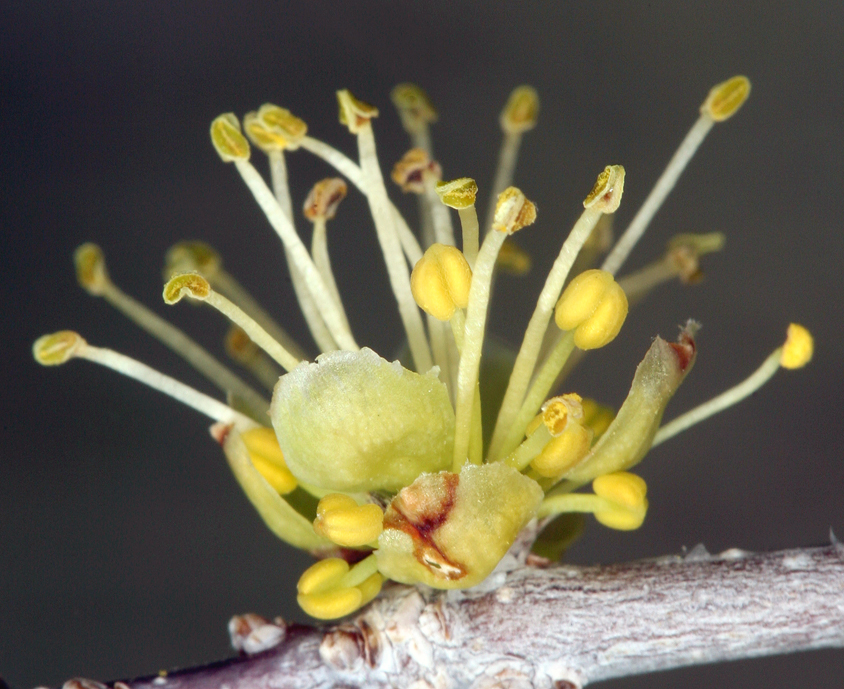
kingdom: Plantae
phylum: Tracheophyta
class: Magnoliopsida
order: Lamiales
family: Oleaceae
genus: Forestiera
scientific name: Forestiera pubescens
